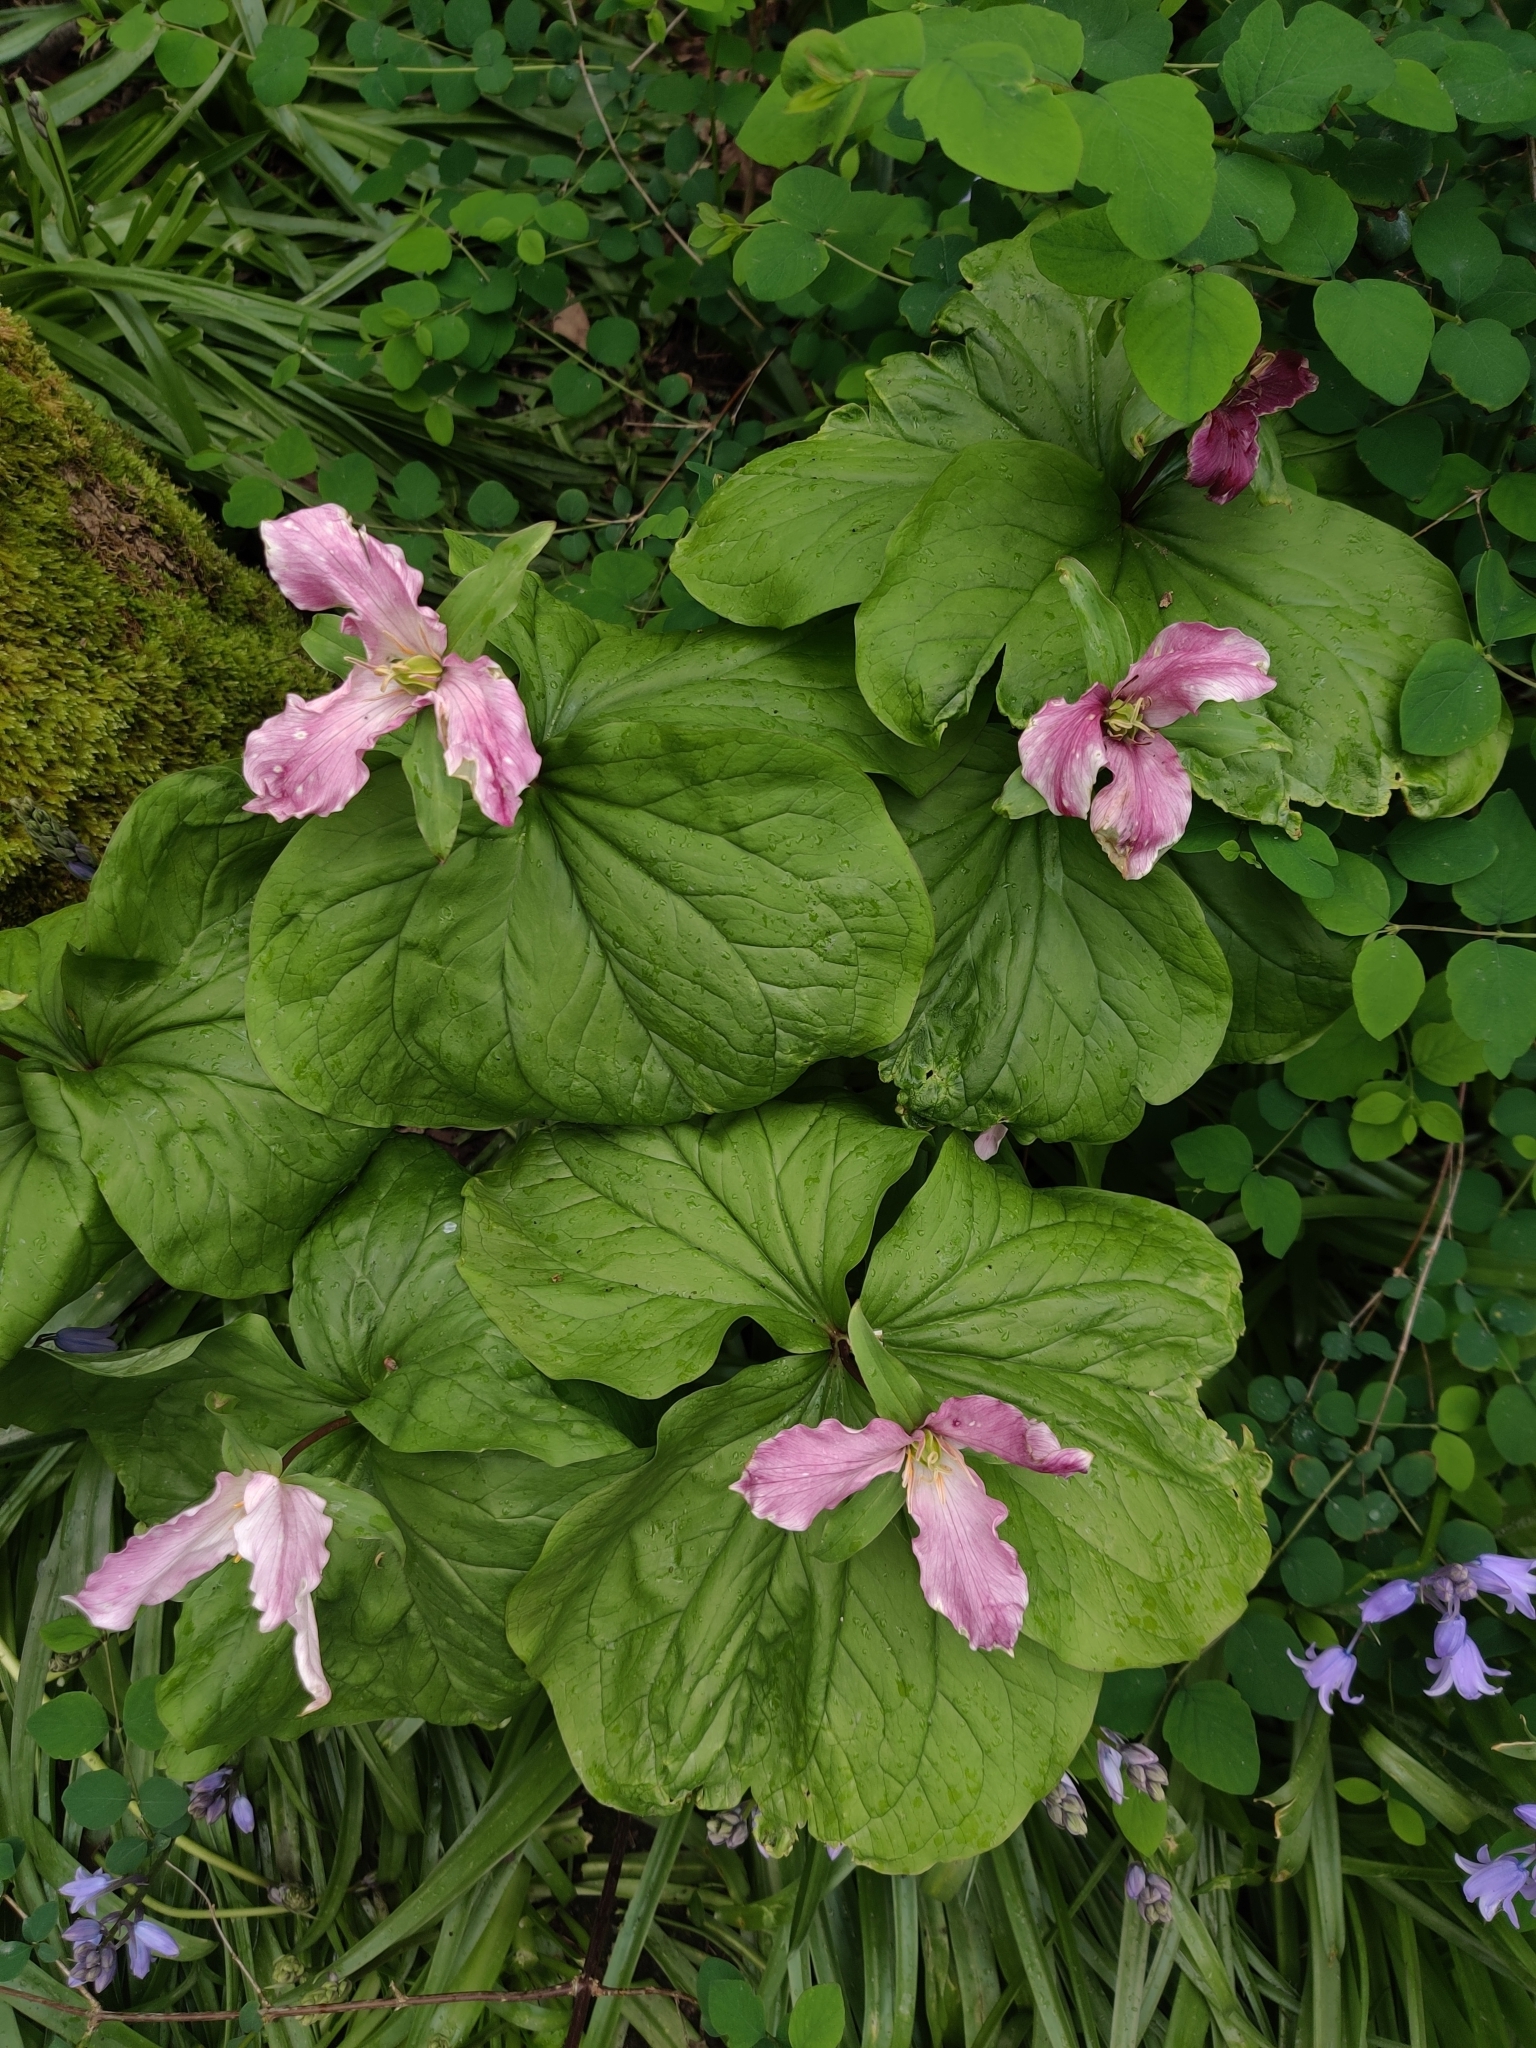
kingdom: Plantae
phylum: Tracheophyta
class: Liliopsida
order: Liliales
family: Melanthiaceae
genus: Trillium
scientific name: Trillium ovatum
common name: Pacific trillium
